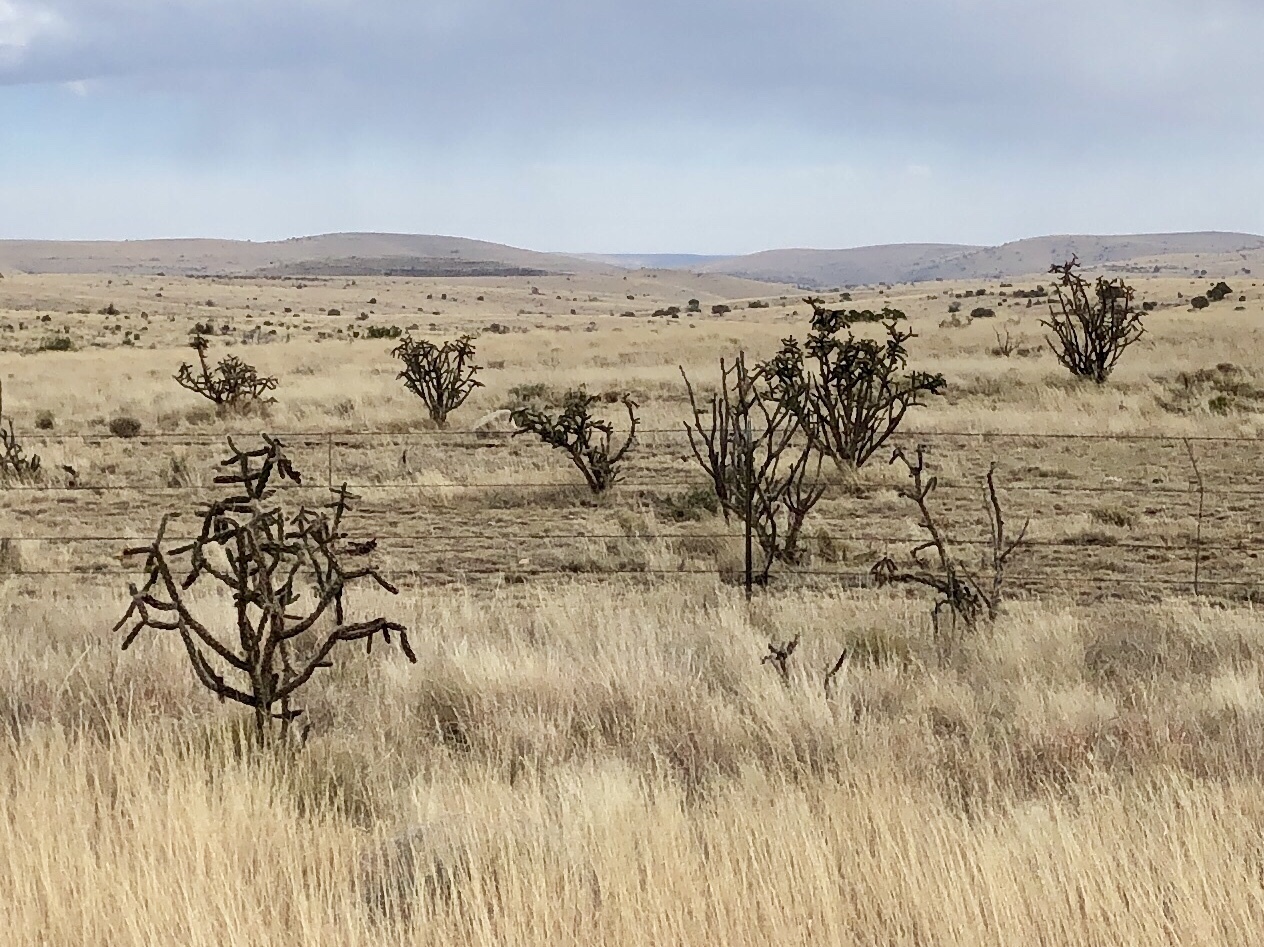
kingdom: Plantae
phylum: Tracheophyta
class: Magnoliopsida
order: Caryophyllales
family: Cactaceae
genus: Cylindropuntia
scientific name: Cylindropuntia imbricata
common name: Candelabrum cactus
